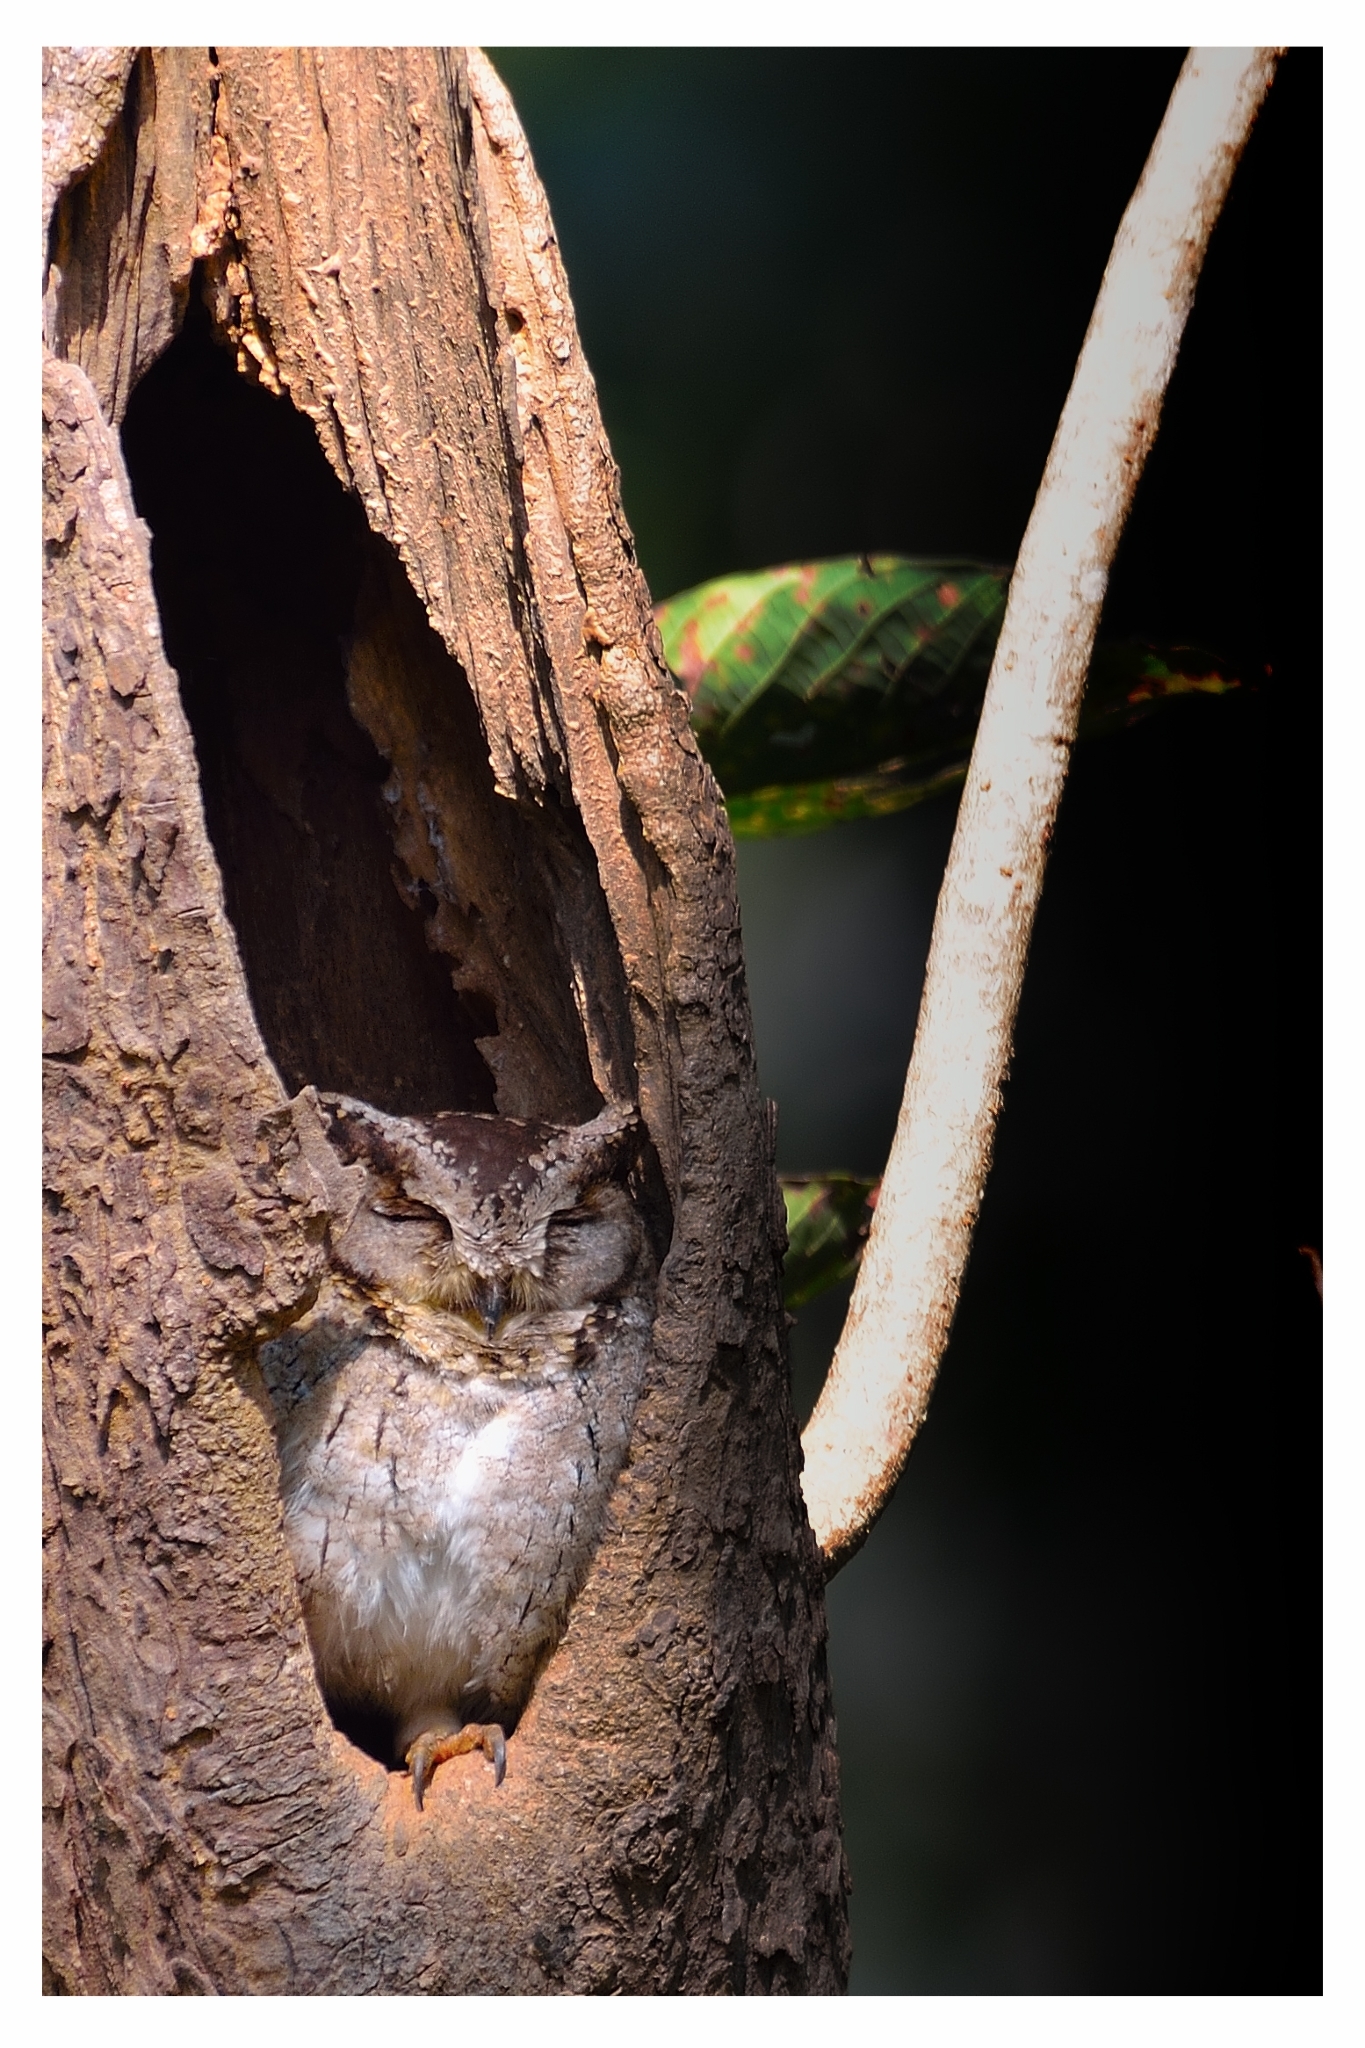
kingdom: Animalia
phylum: Chordata
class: Aves
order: Strigiformes
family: Strigidae
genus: Otus
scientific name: Otus bakkamoena
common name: Indian scops owl
